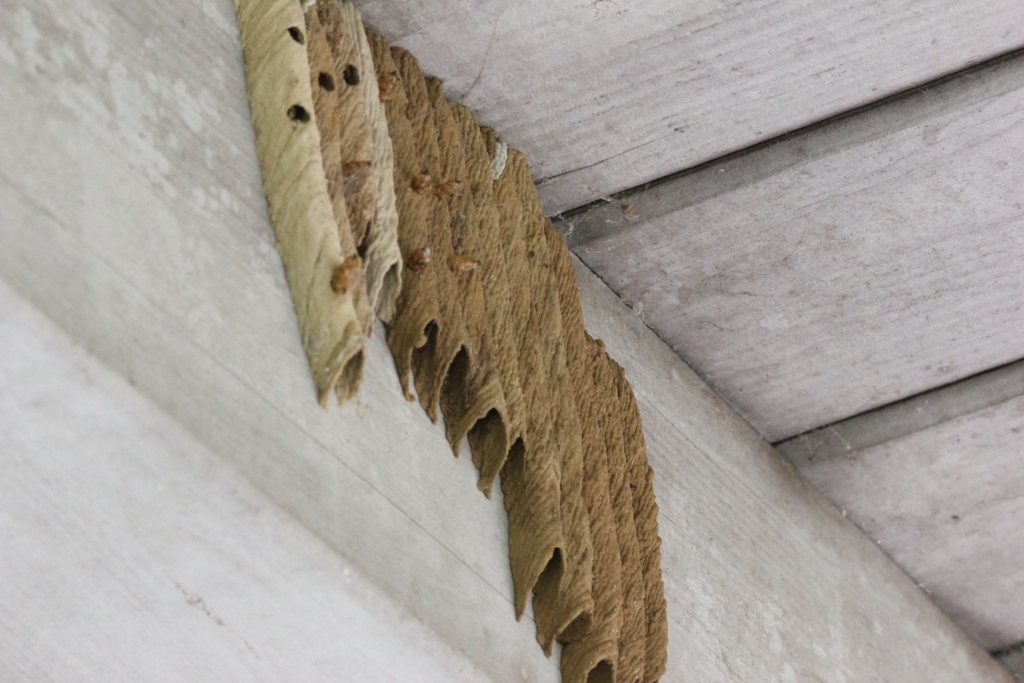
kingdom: Animalia
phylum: Arthropoda
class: Insecta
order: Hymenoptera
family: Crabronidae
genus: Trypoxylon
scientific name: Trypoxylon politum
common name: Organ-pipe mud-dauber wasp
